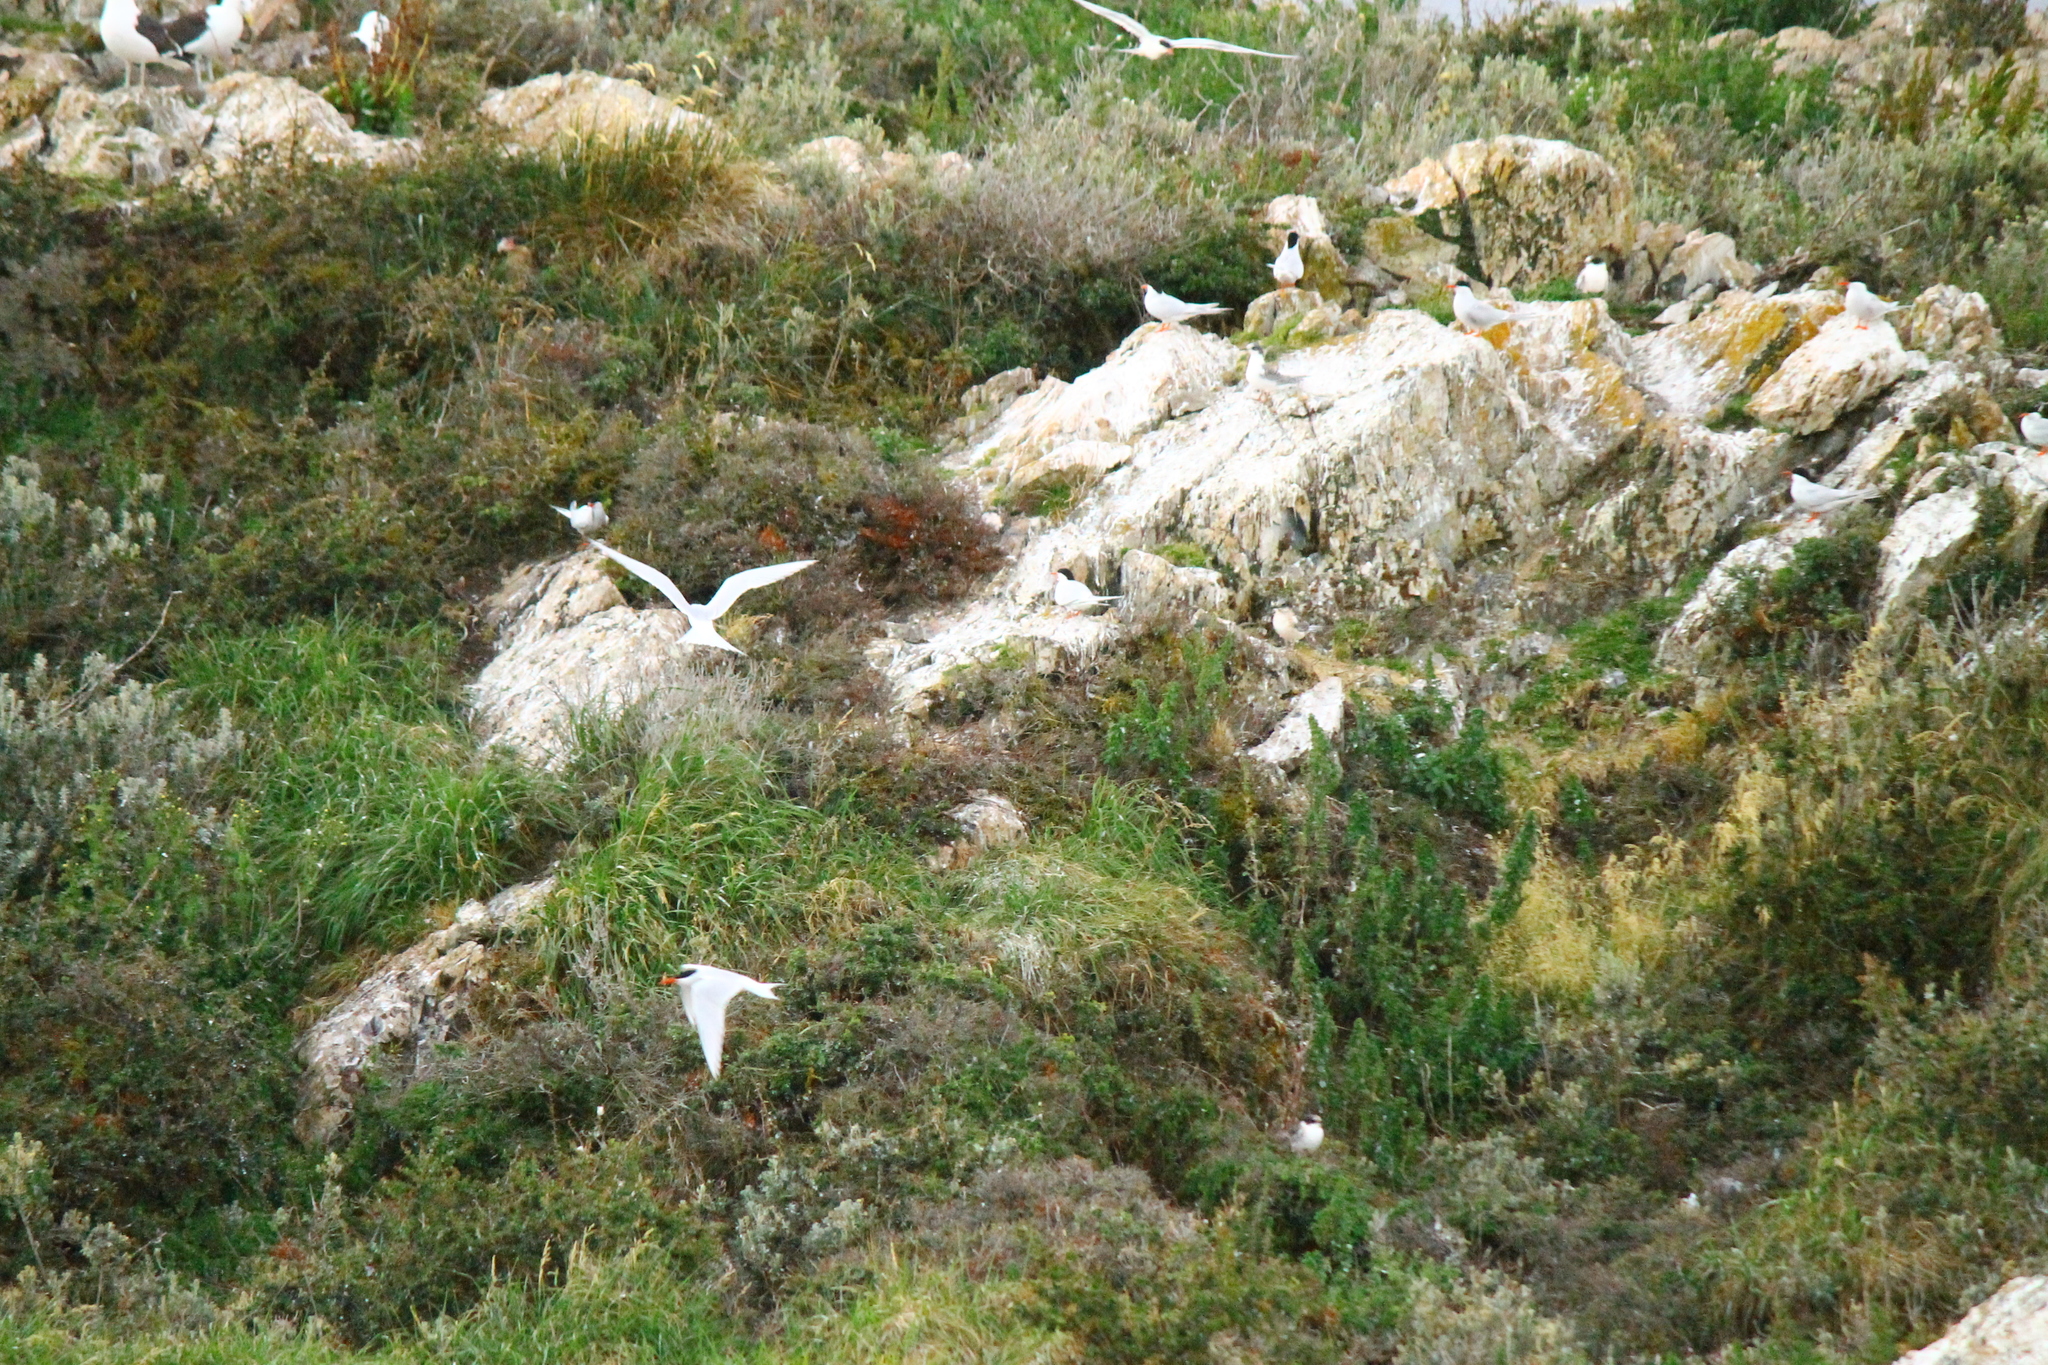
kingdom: Animalia
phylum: Chordata
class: Aves
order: Charadriiformes
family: Laridae
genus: Sterna
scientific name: Sterna hirundinacea
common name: South american tern
